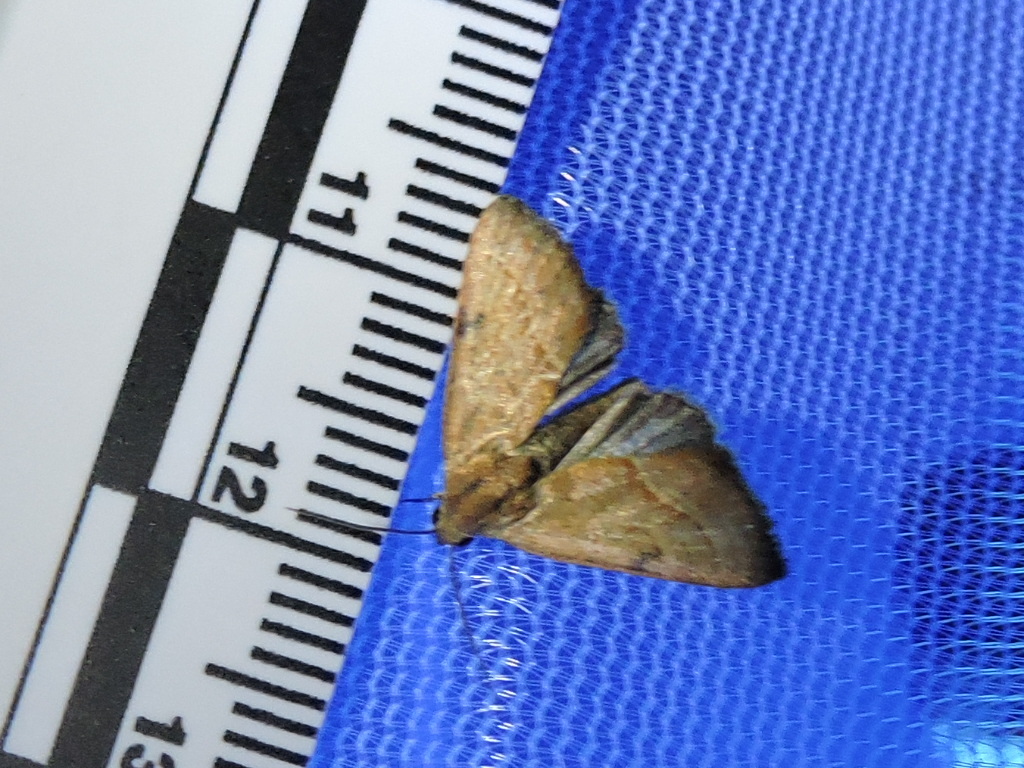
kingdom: Animalia
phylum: Arthropoda
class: Insecta
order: Lepidoptera
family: Noctuidae
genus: Galgula
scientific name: Galgula partita
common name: Wedgeling
